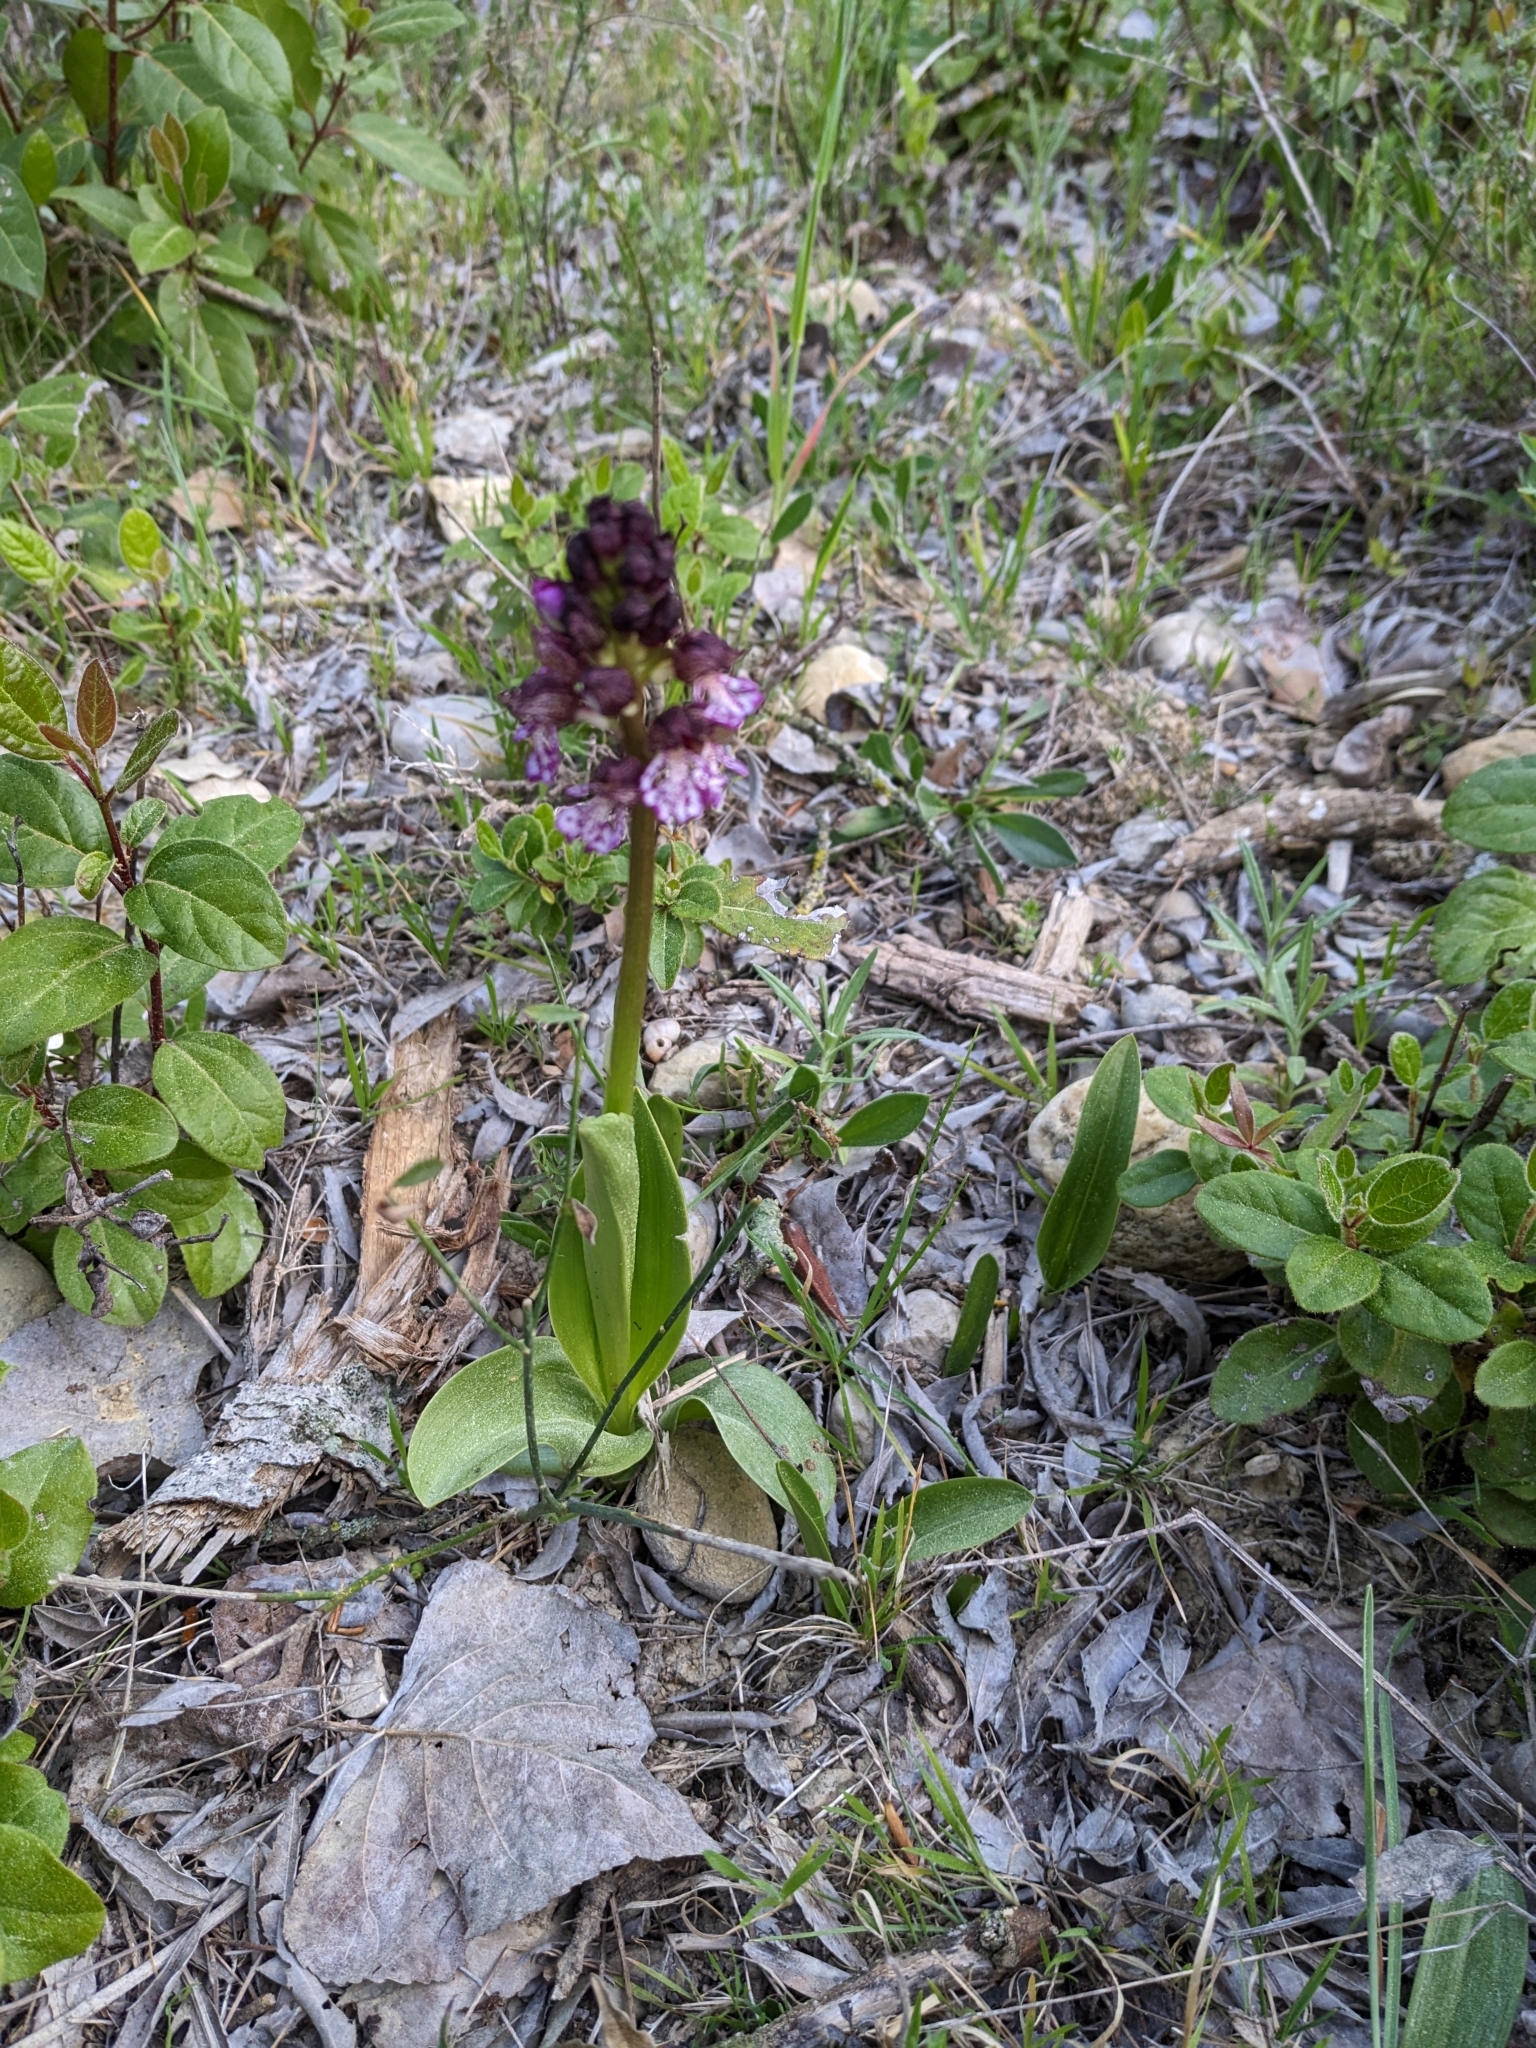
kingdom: Plantae
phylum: Tracheophyta
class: Liliopsida
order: Asparagales
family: Orchidaceae
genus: Orchis
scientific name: Orchis purpurea
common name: Lady orchid
